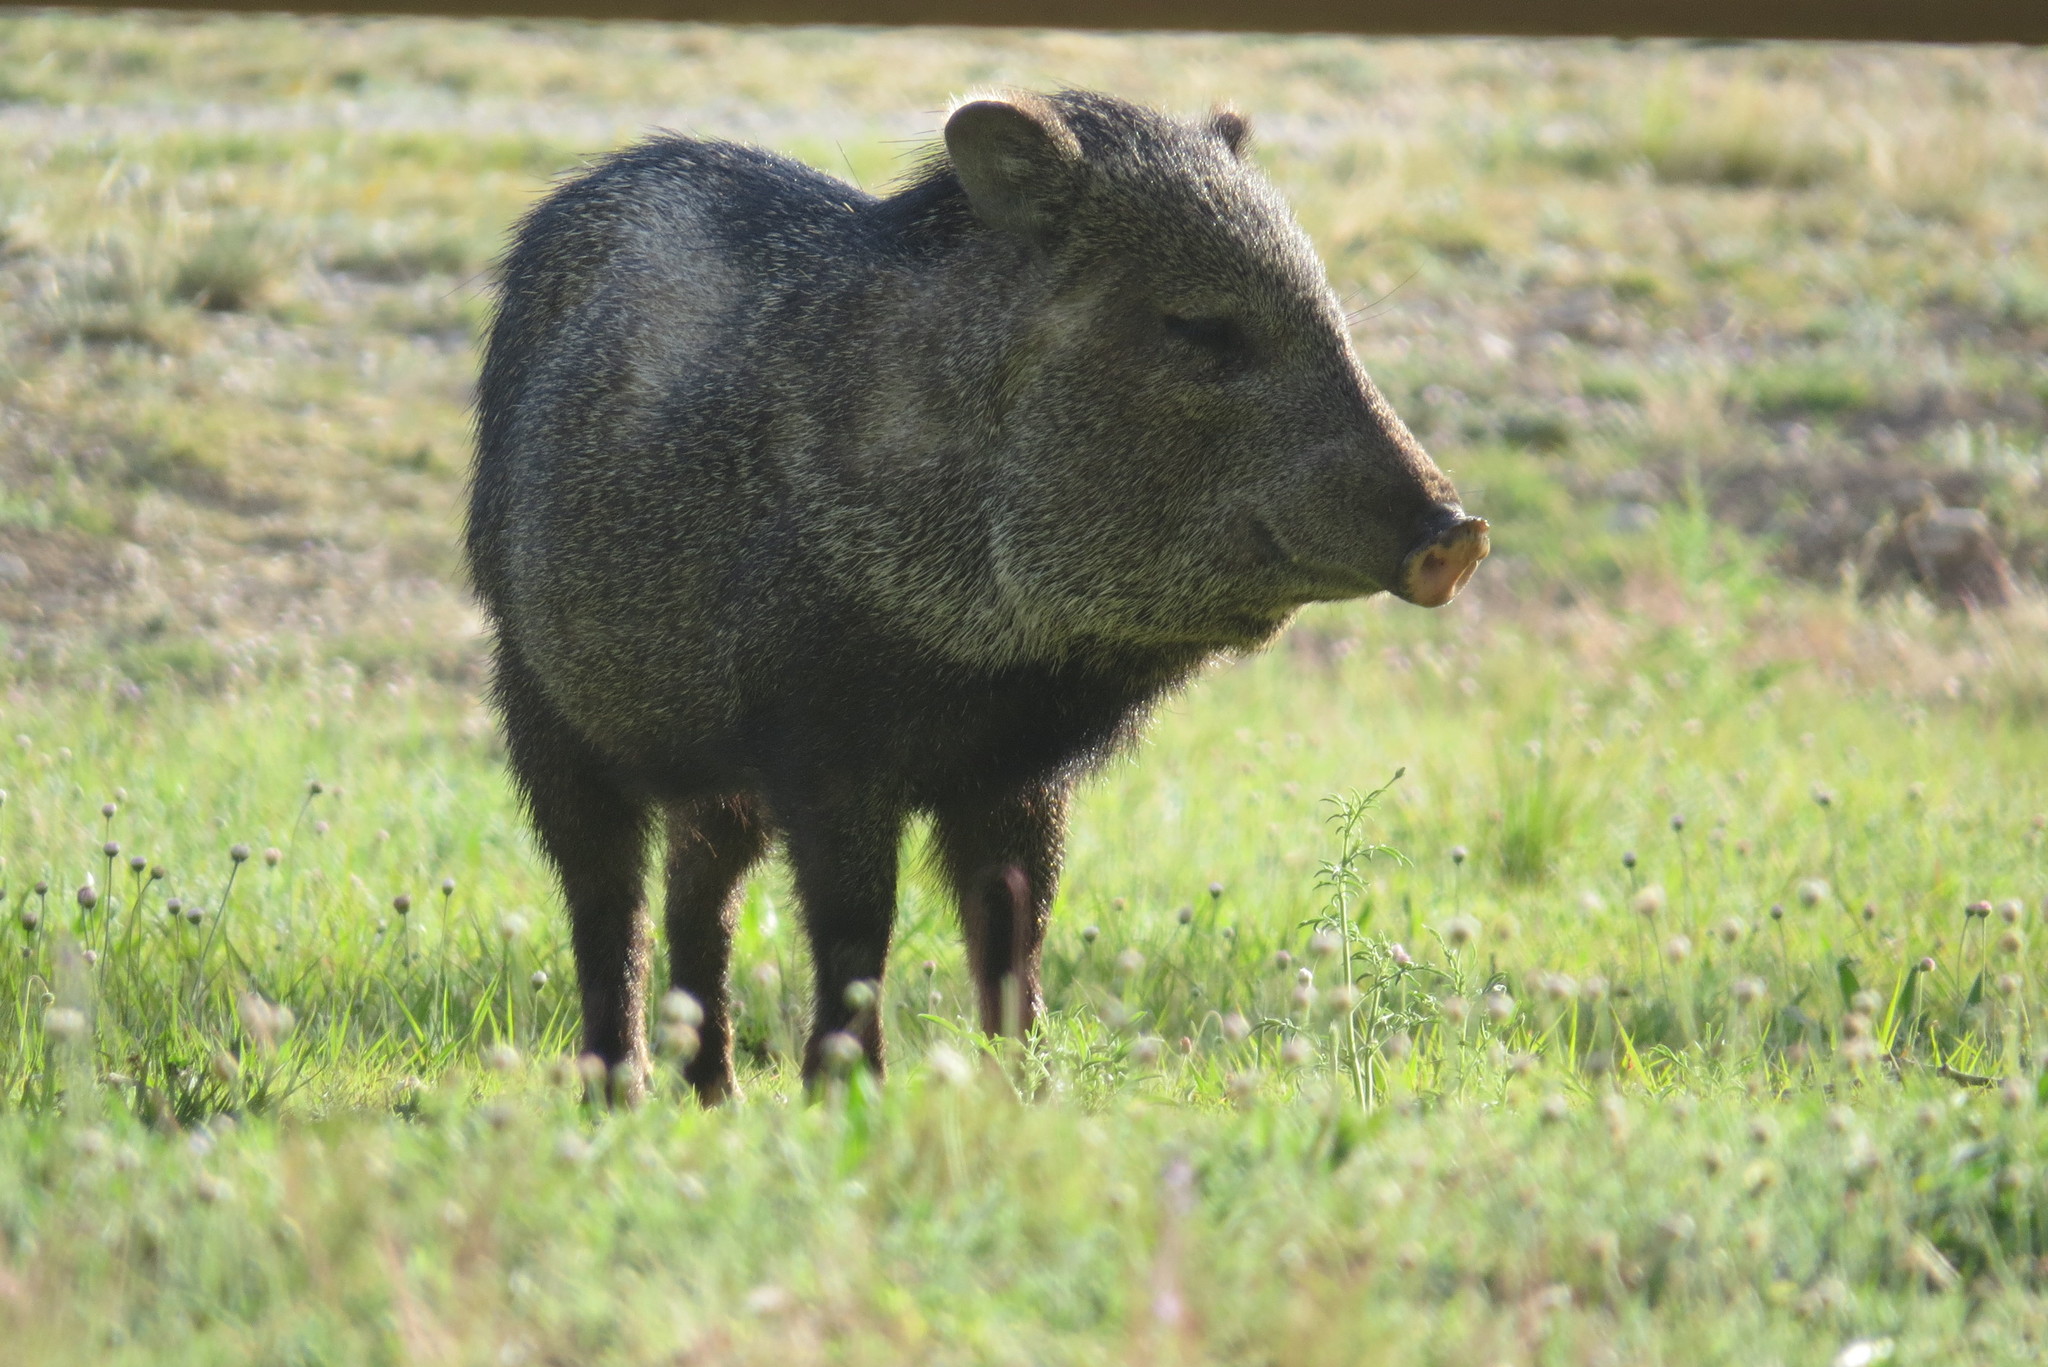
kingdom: Animalia
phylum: Chordata
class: Mammalia
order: Artiodactyla
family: Tayassuidae
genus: Pecari
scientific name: Pecari tajacu
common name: Collared peccary
